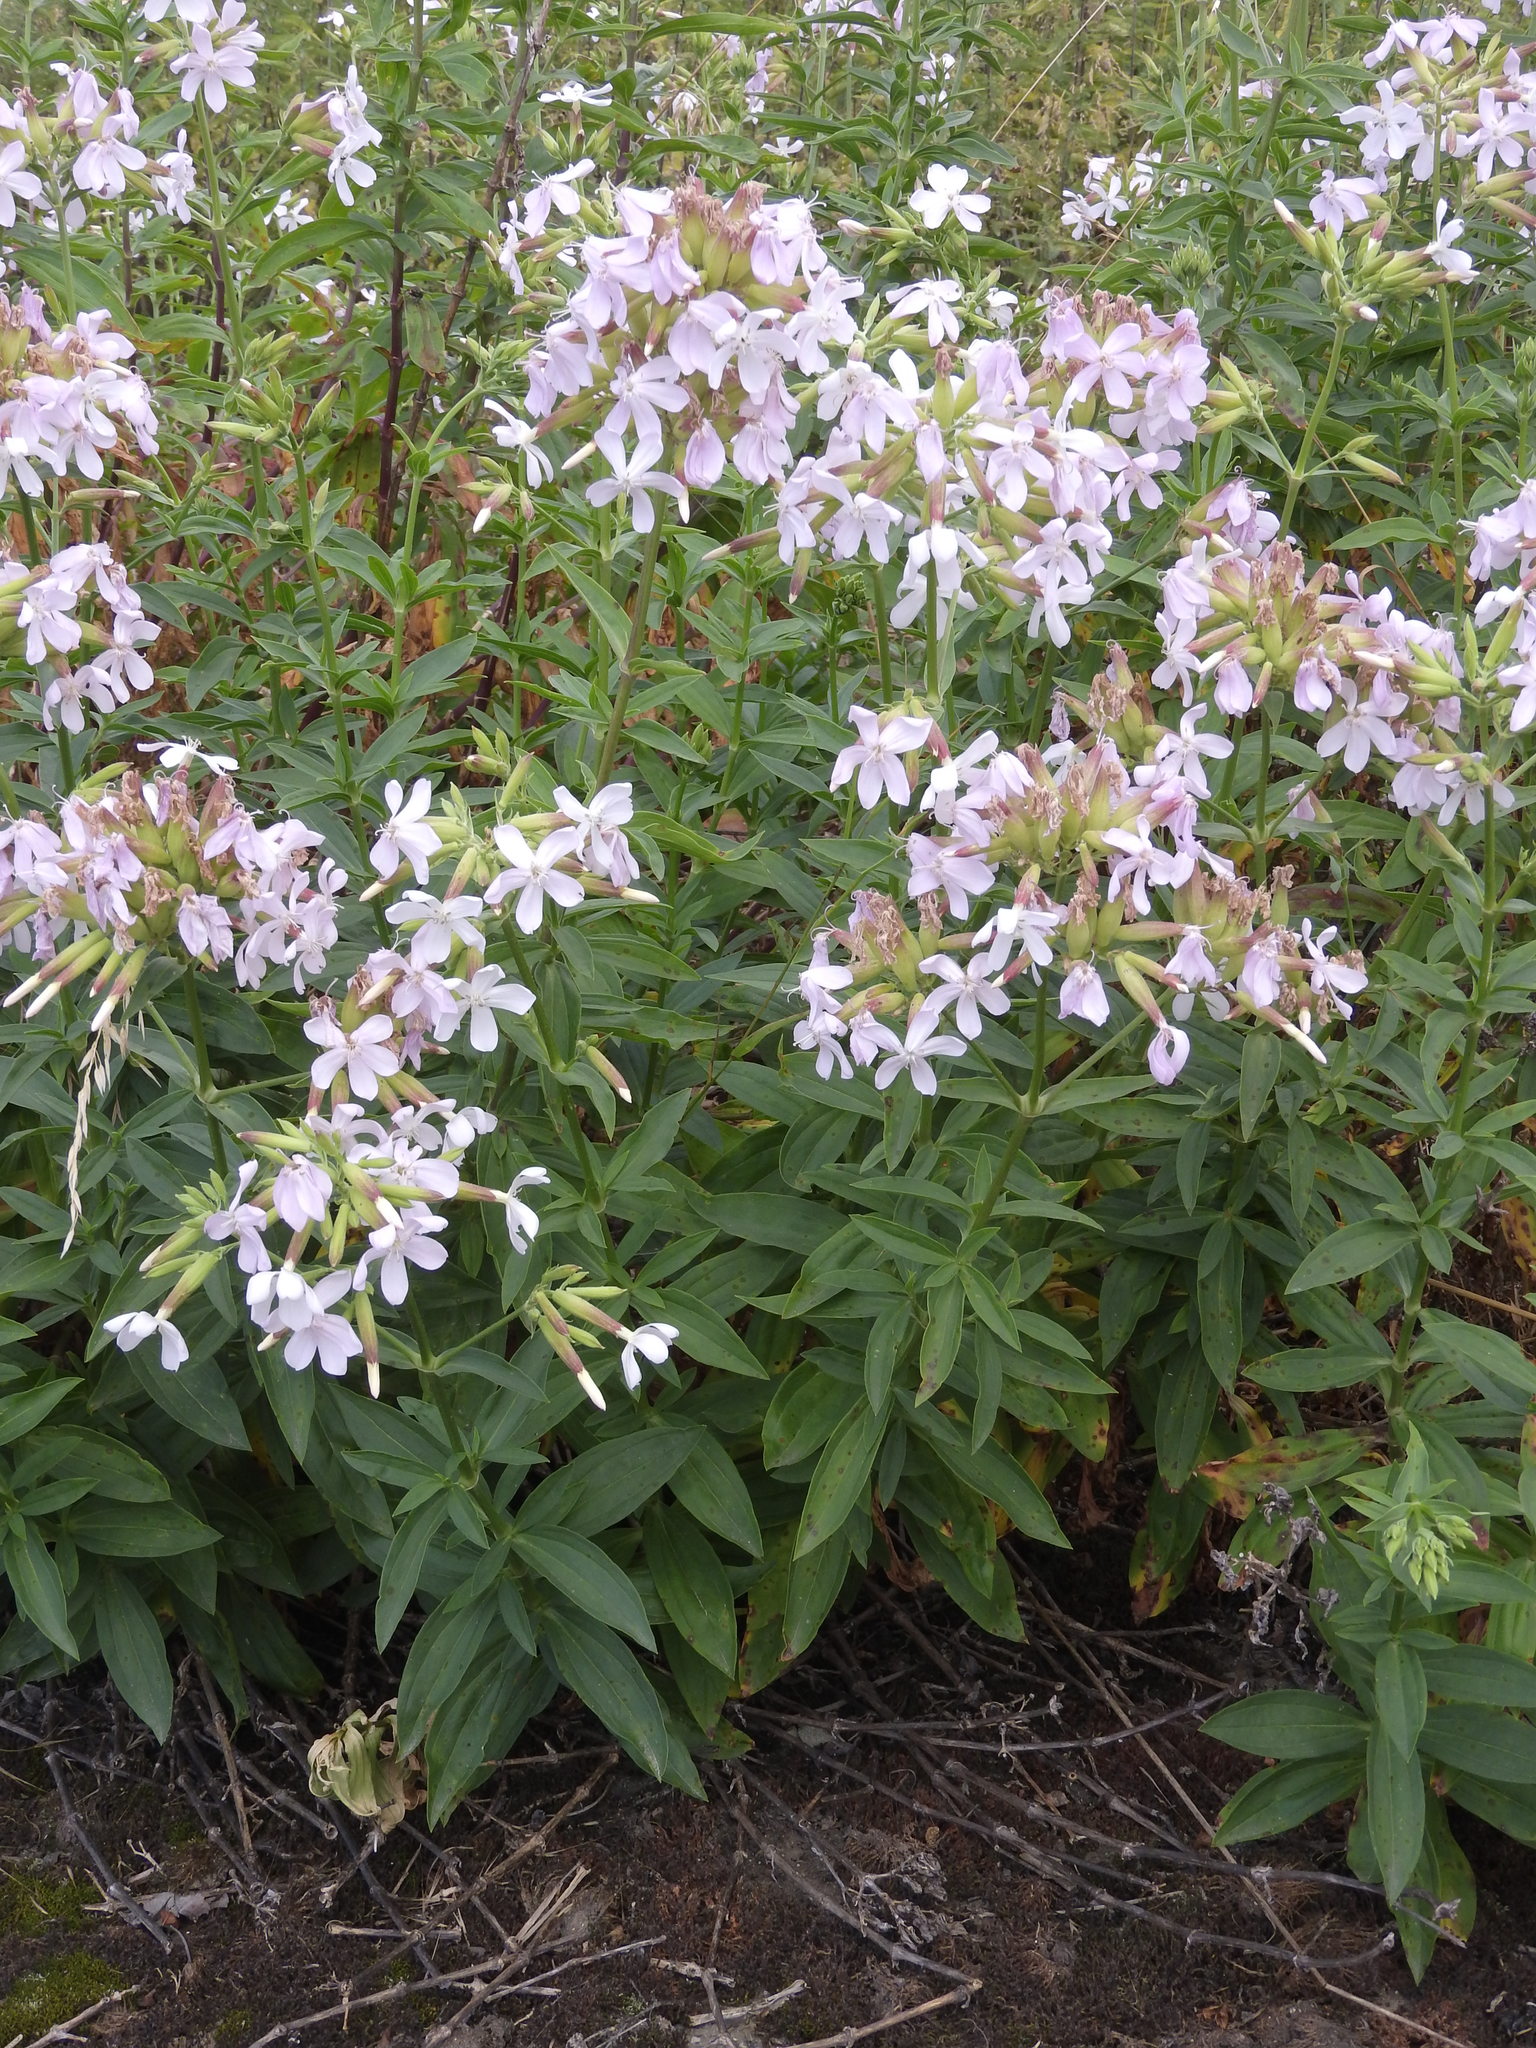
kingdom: Plantae
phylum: Tracheophyta
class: Magnoliopsida
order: Caryophyllales
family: Caryophyllaceae
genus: Saponaria
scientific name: Saponaria officinalis
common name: Soapwort
